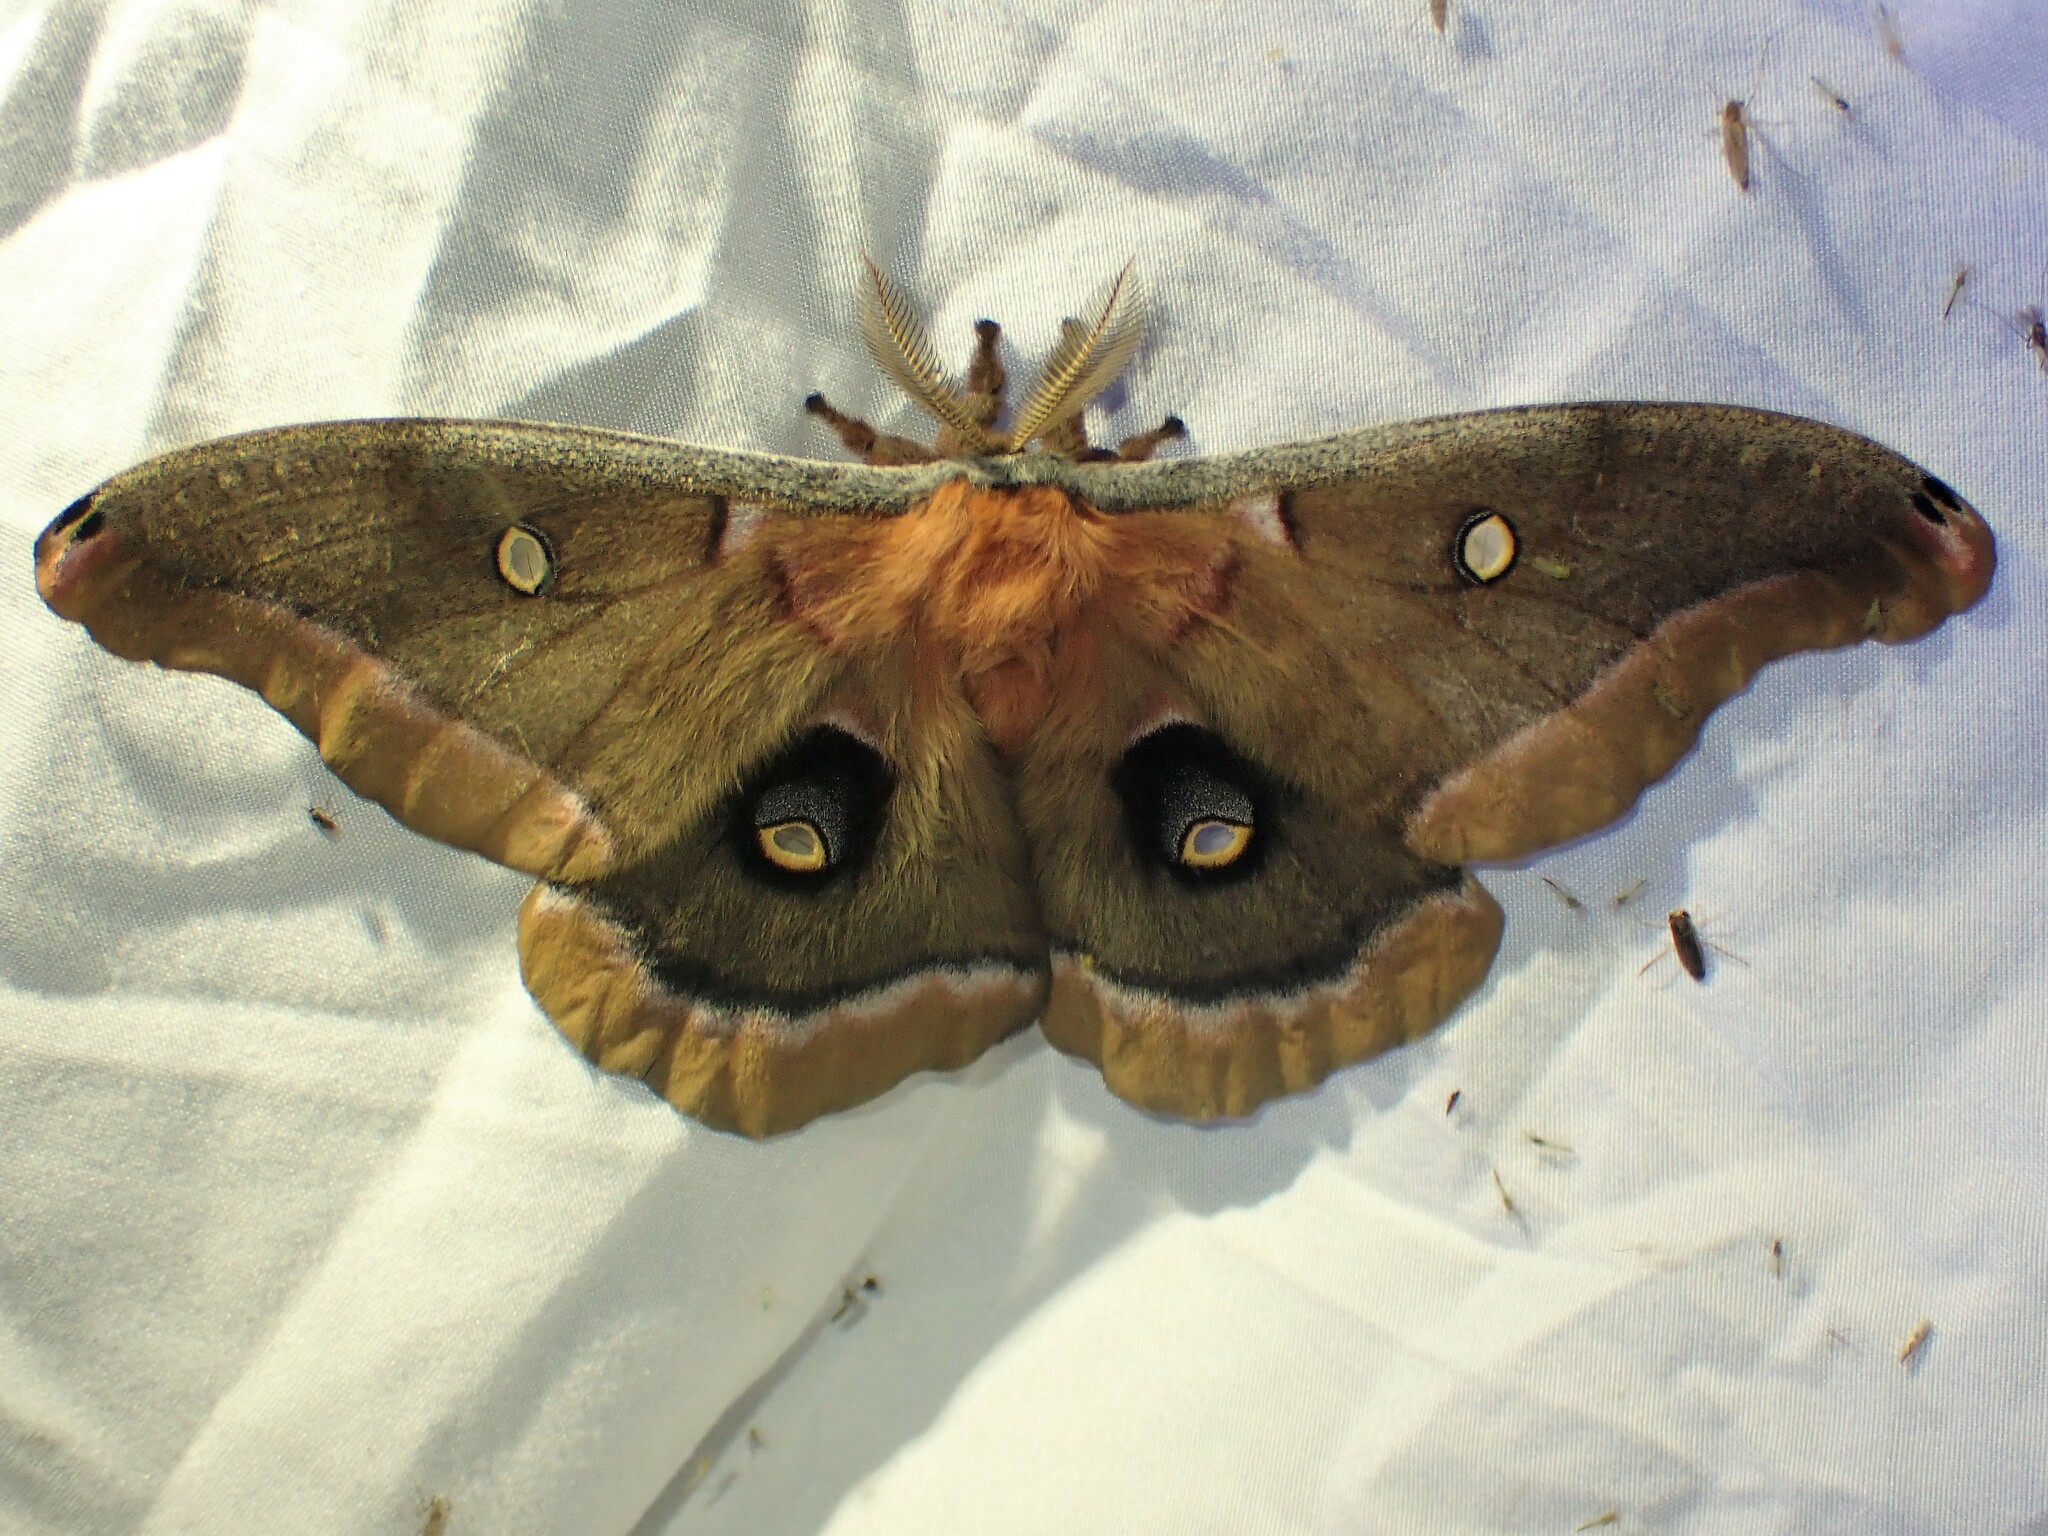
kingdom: Animalia
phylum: Arthropoda
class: Insecta
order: Lepidoptera
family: Saturniidae
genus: Antheraea
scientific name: Antheraea polyphemus
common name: Polyphemus moth
